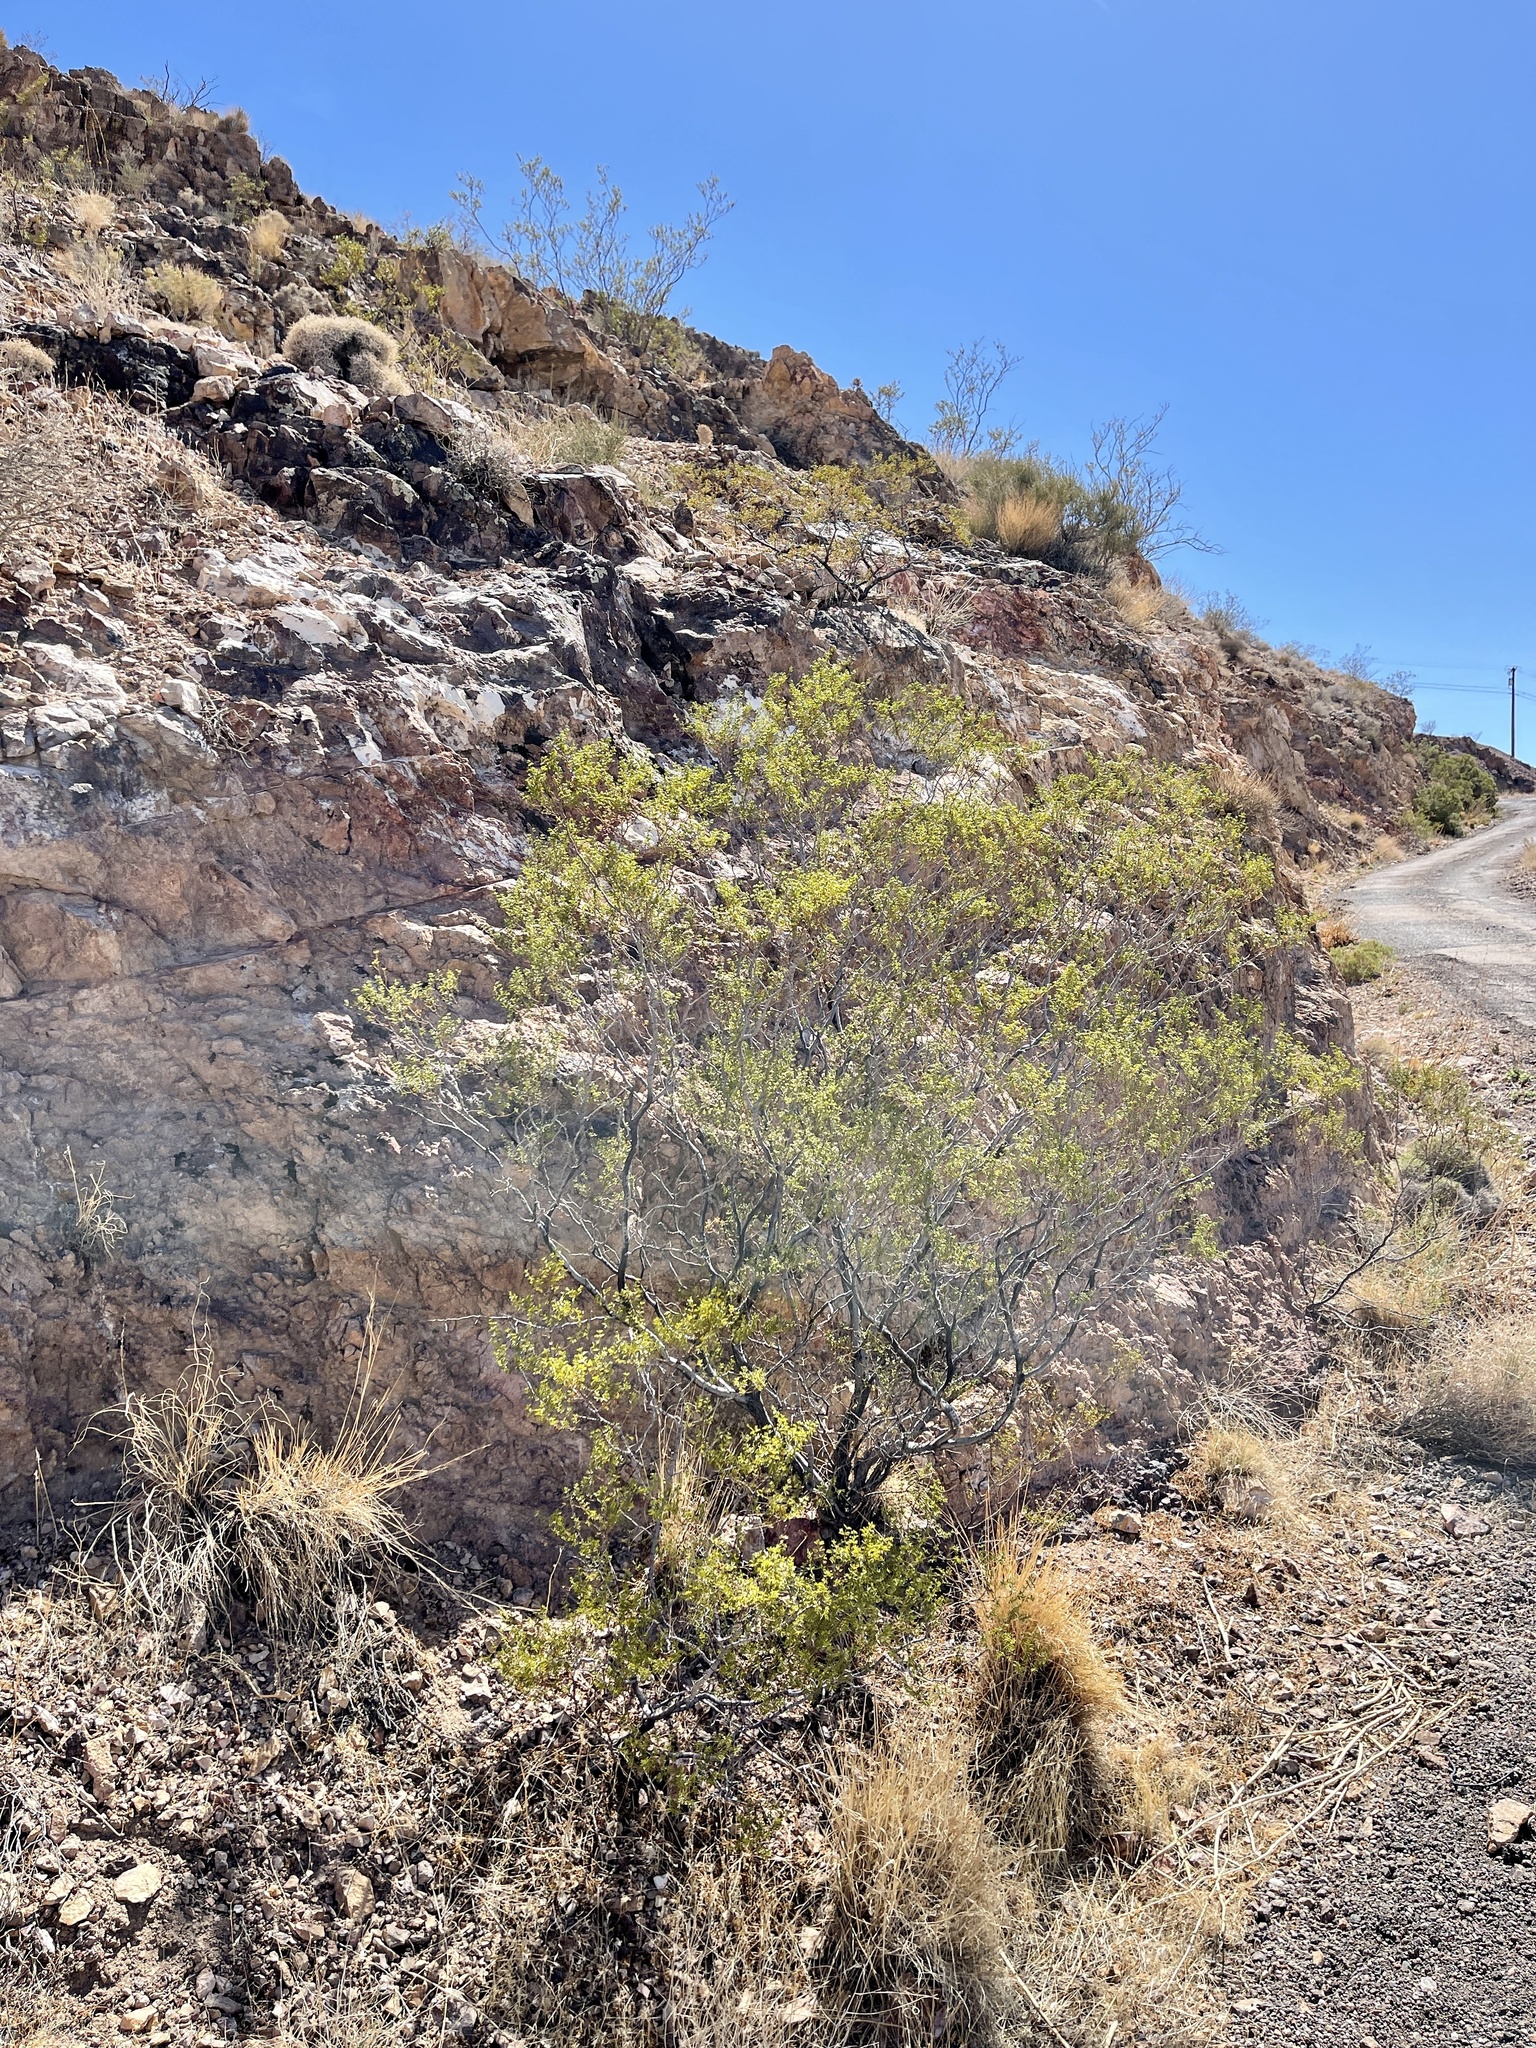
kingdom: Plantae
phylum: Tracheophyta
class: Magnoliopsida
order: Zygophyllales
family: Zygophyllaceae
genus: Larrea
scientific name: Larrea tridentata
